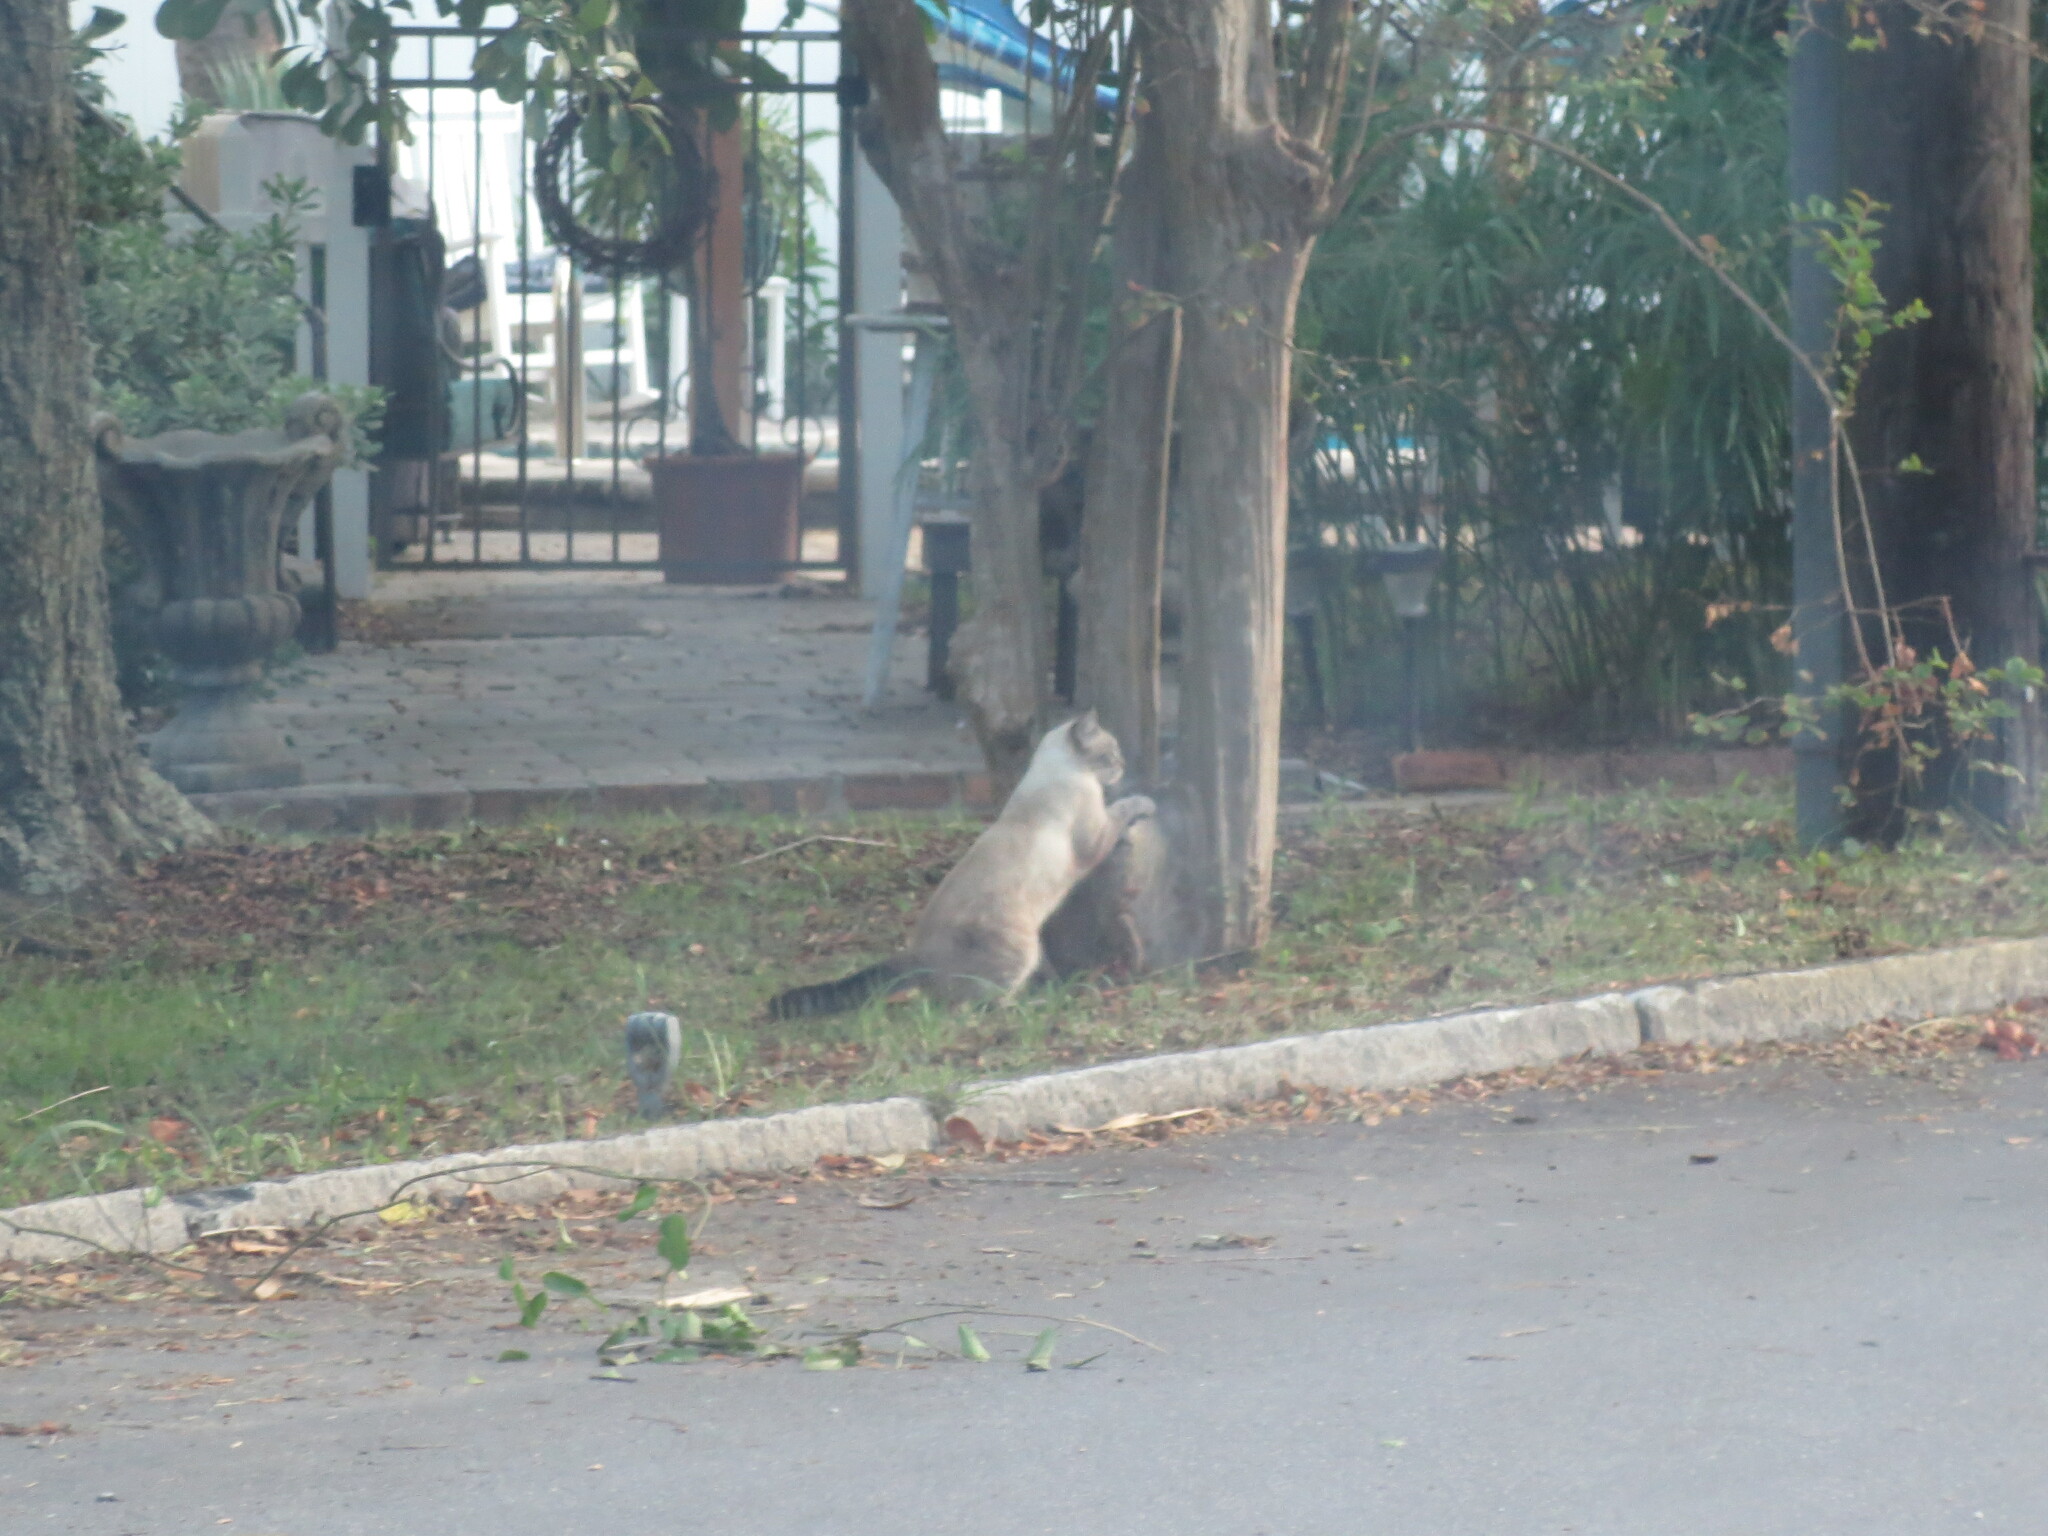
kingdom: Animalia
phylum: Chordata
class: Mammalia
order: Carnivora
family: Felidae
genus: Felis
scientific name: Felis catus
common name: Domestic cat
